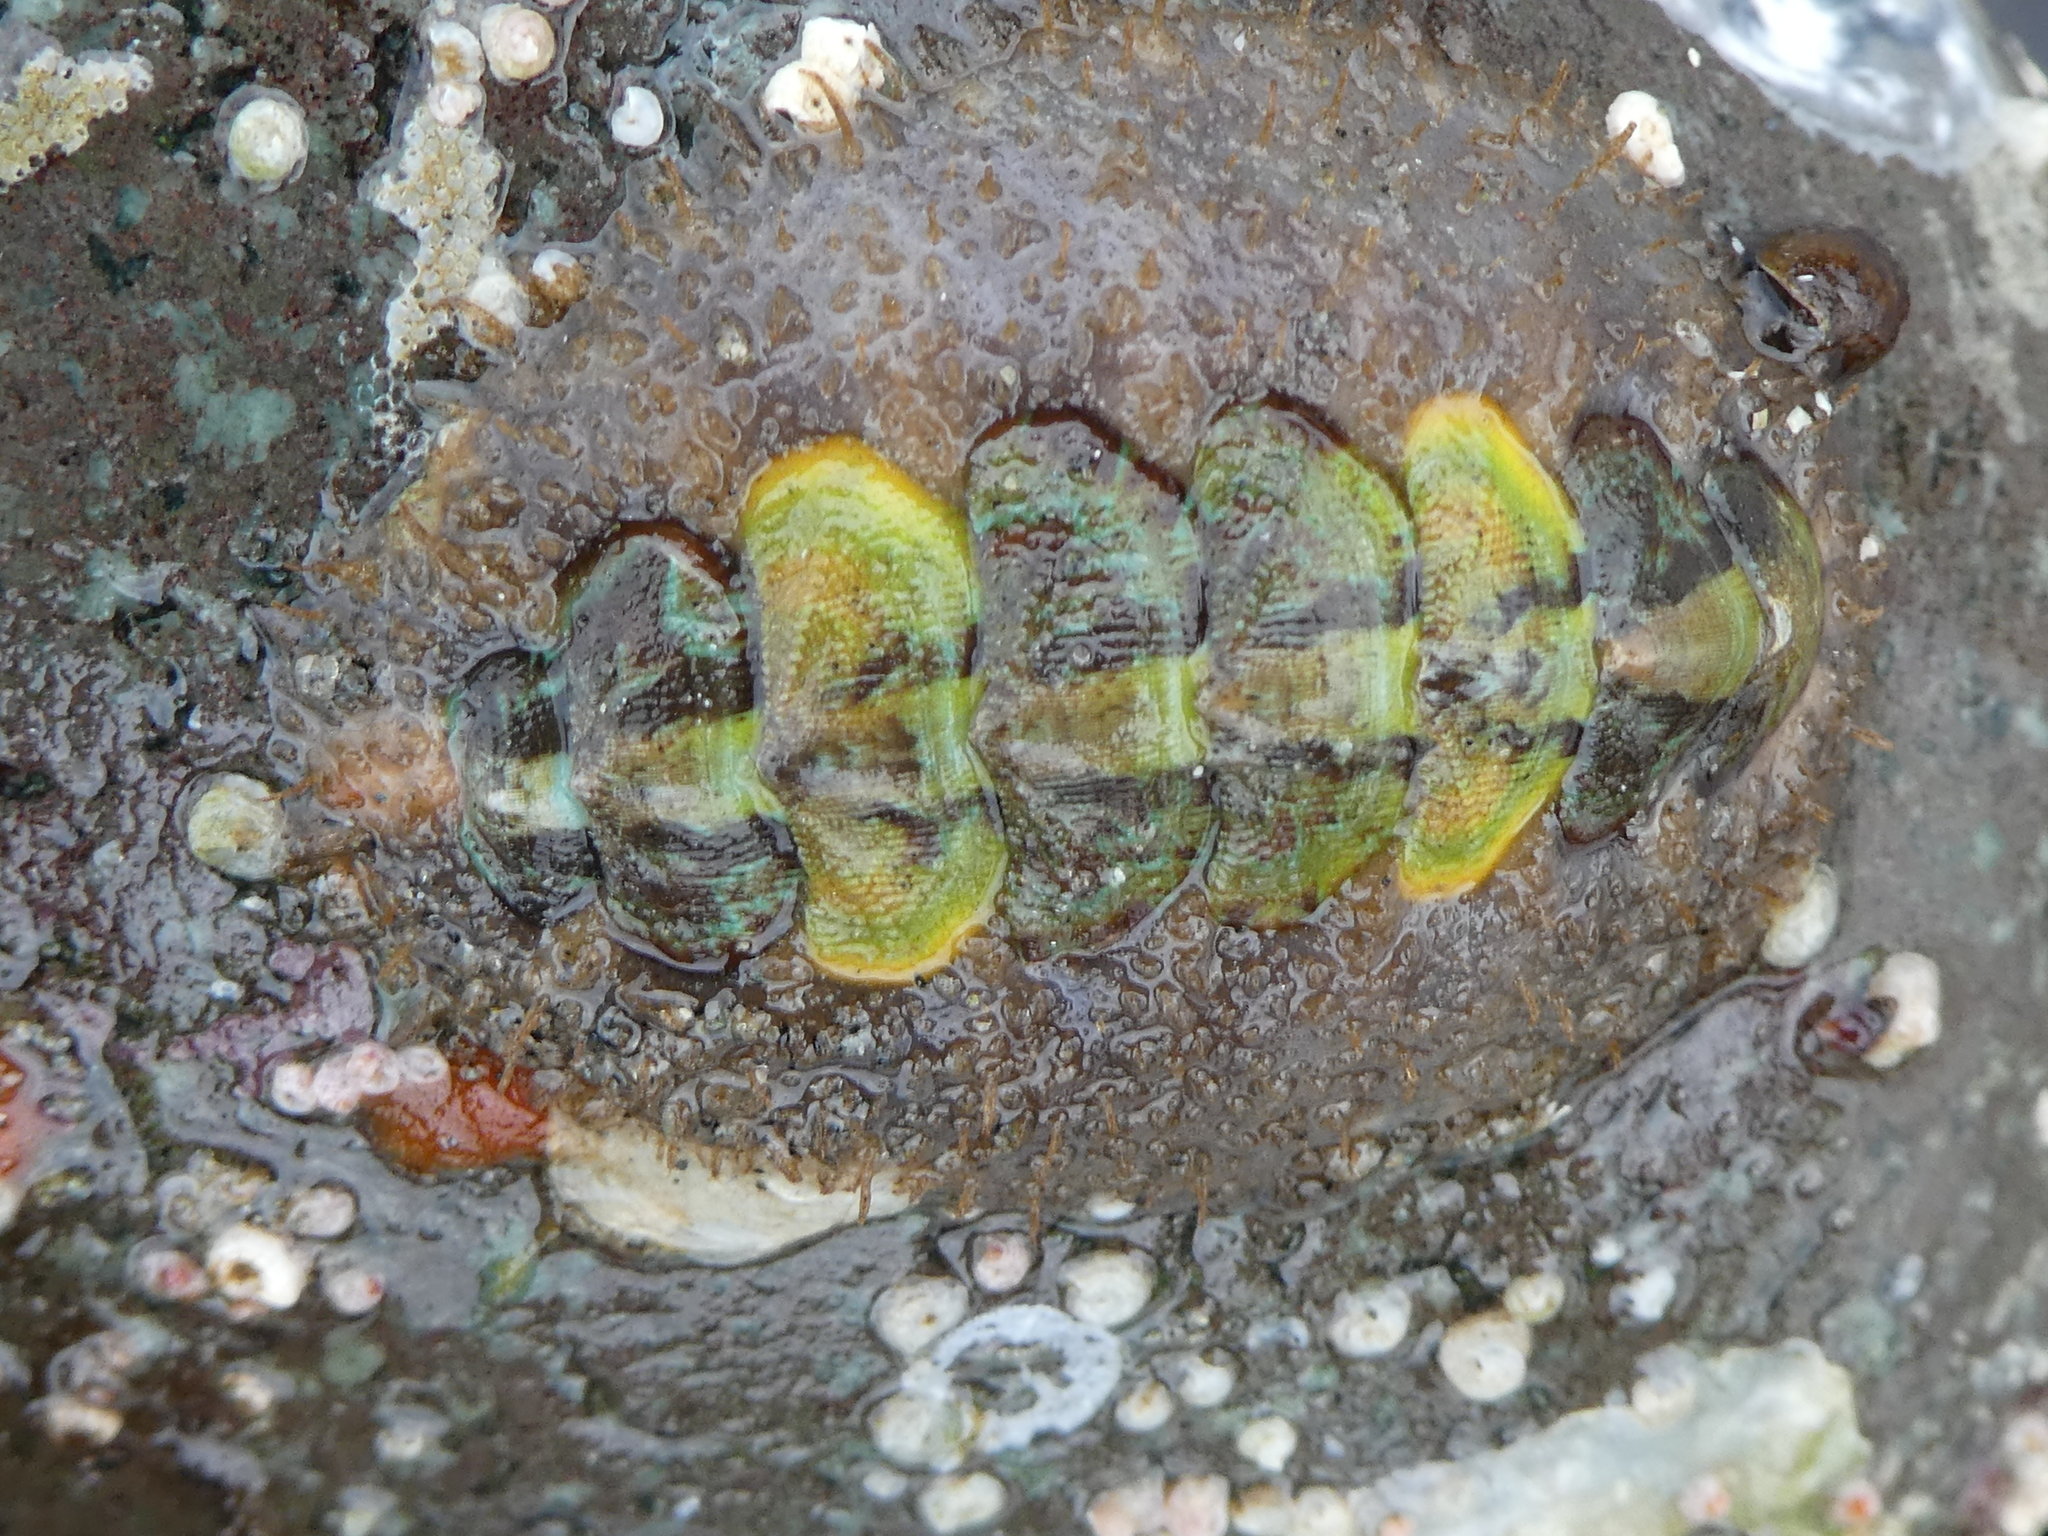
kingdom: Animalia
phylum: Mollusca
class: Polyplacophora
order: Chitonida
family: Mopaliidae
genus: Mopalia
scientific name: Mopalia ciliata
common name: Hairy chiton
